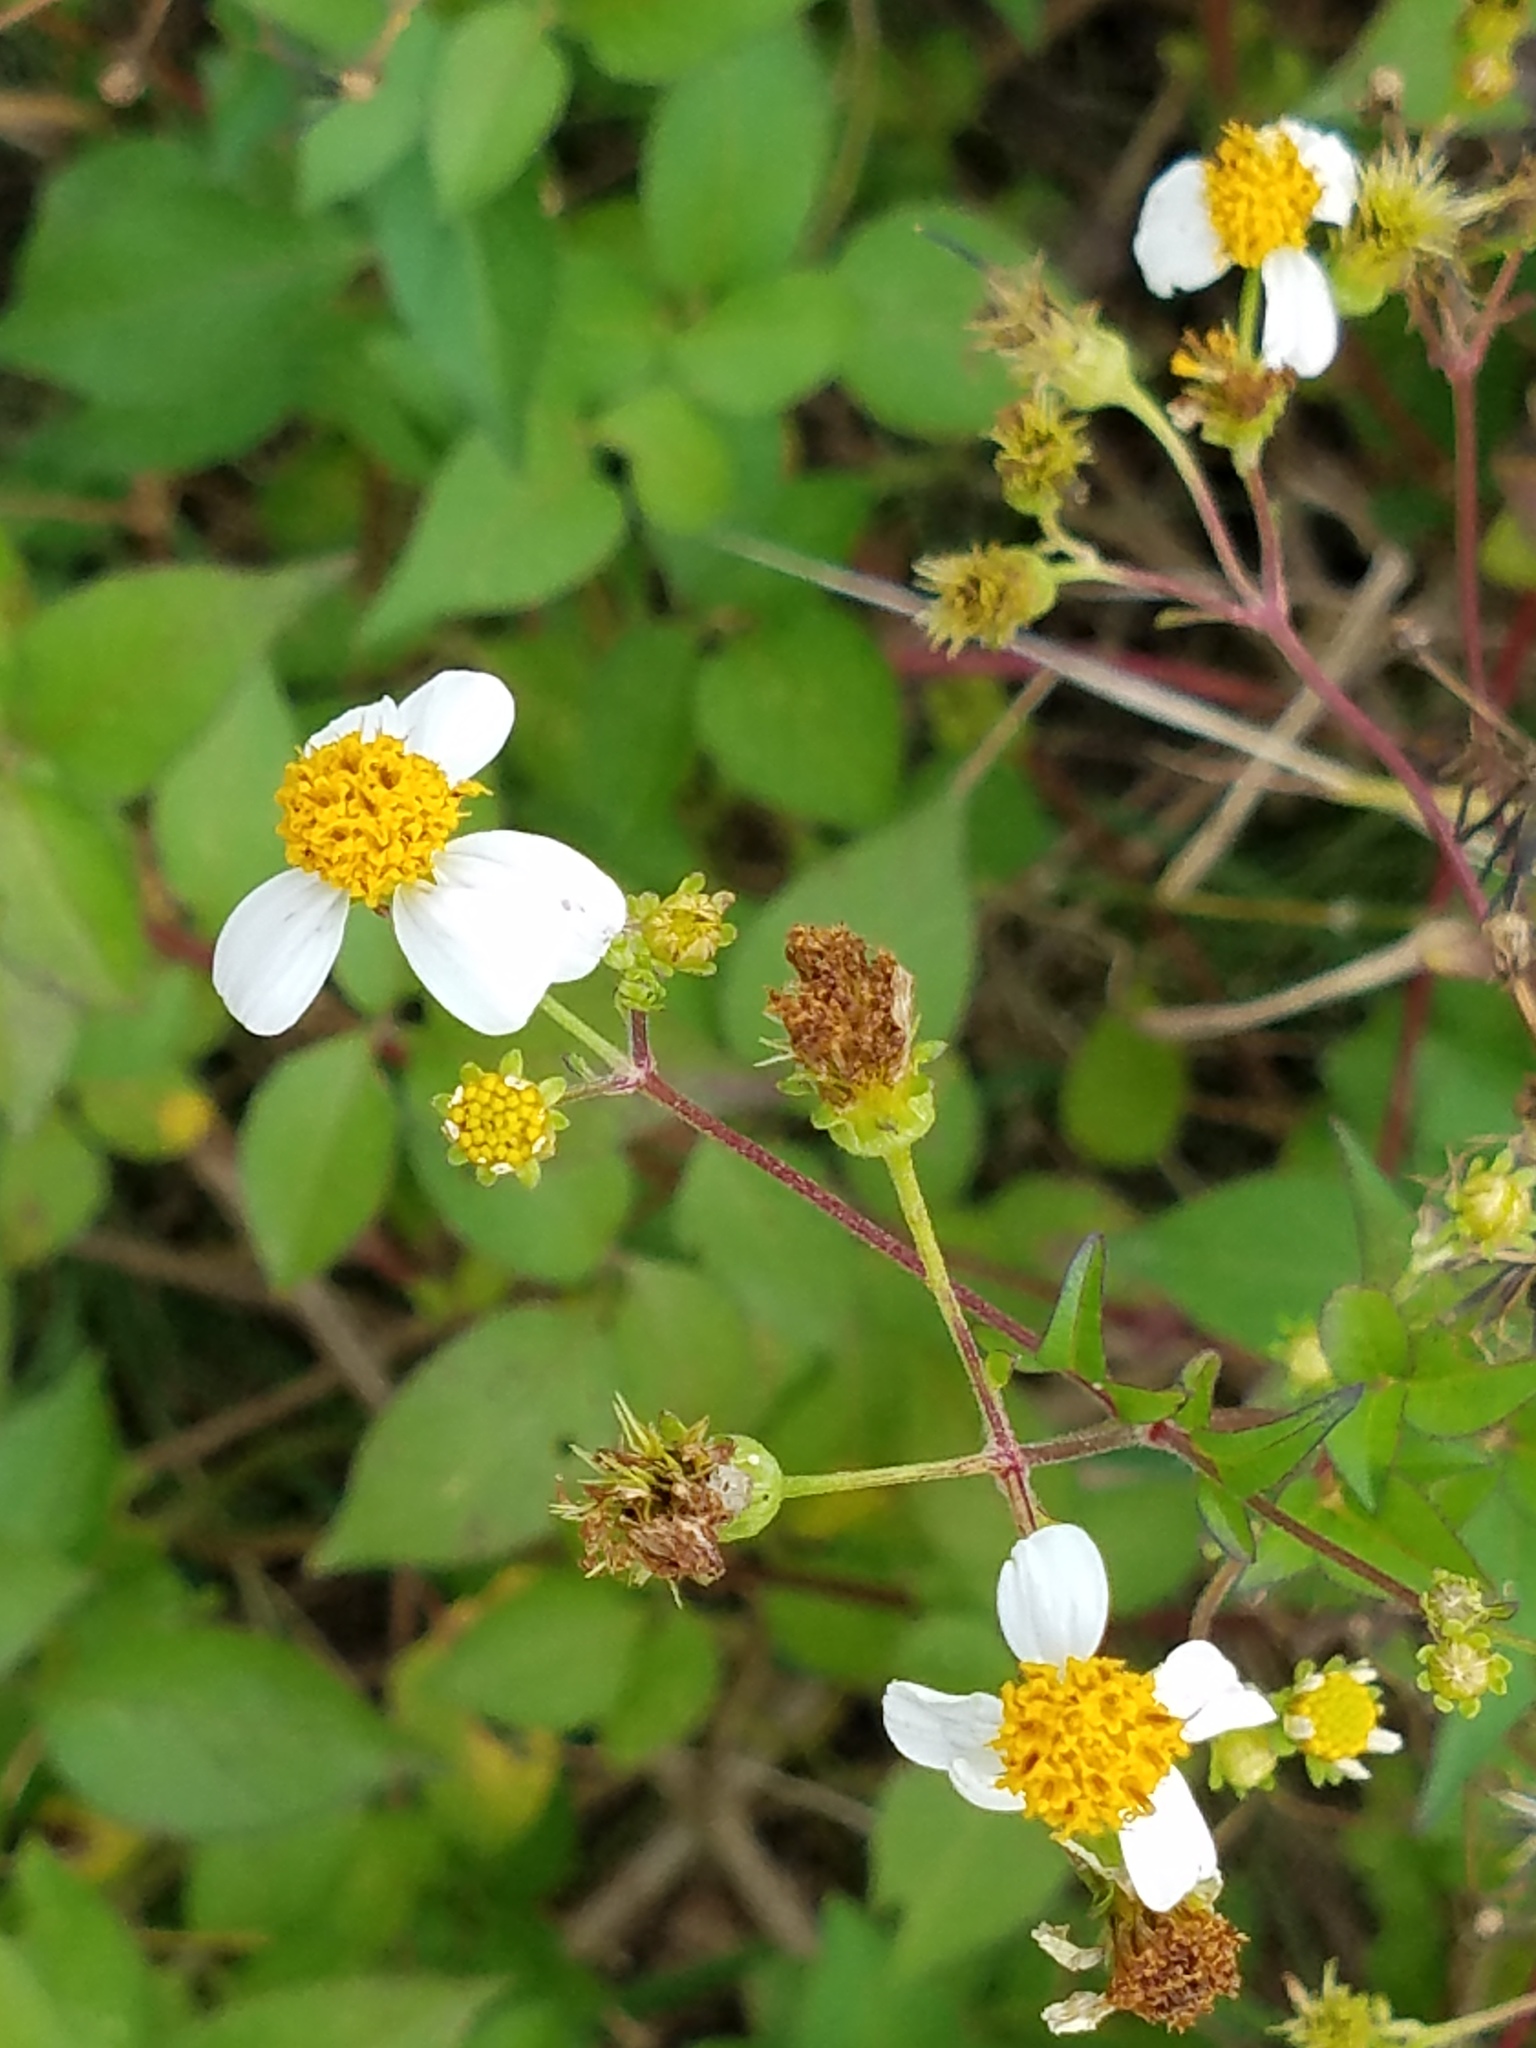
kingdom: Plantae
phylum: Tracheophyta
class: Magnoliopsida
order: Asterales
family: Asteraceae
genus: Bidens
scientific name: Bidens alba
